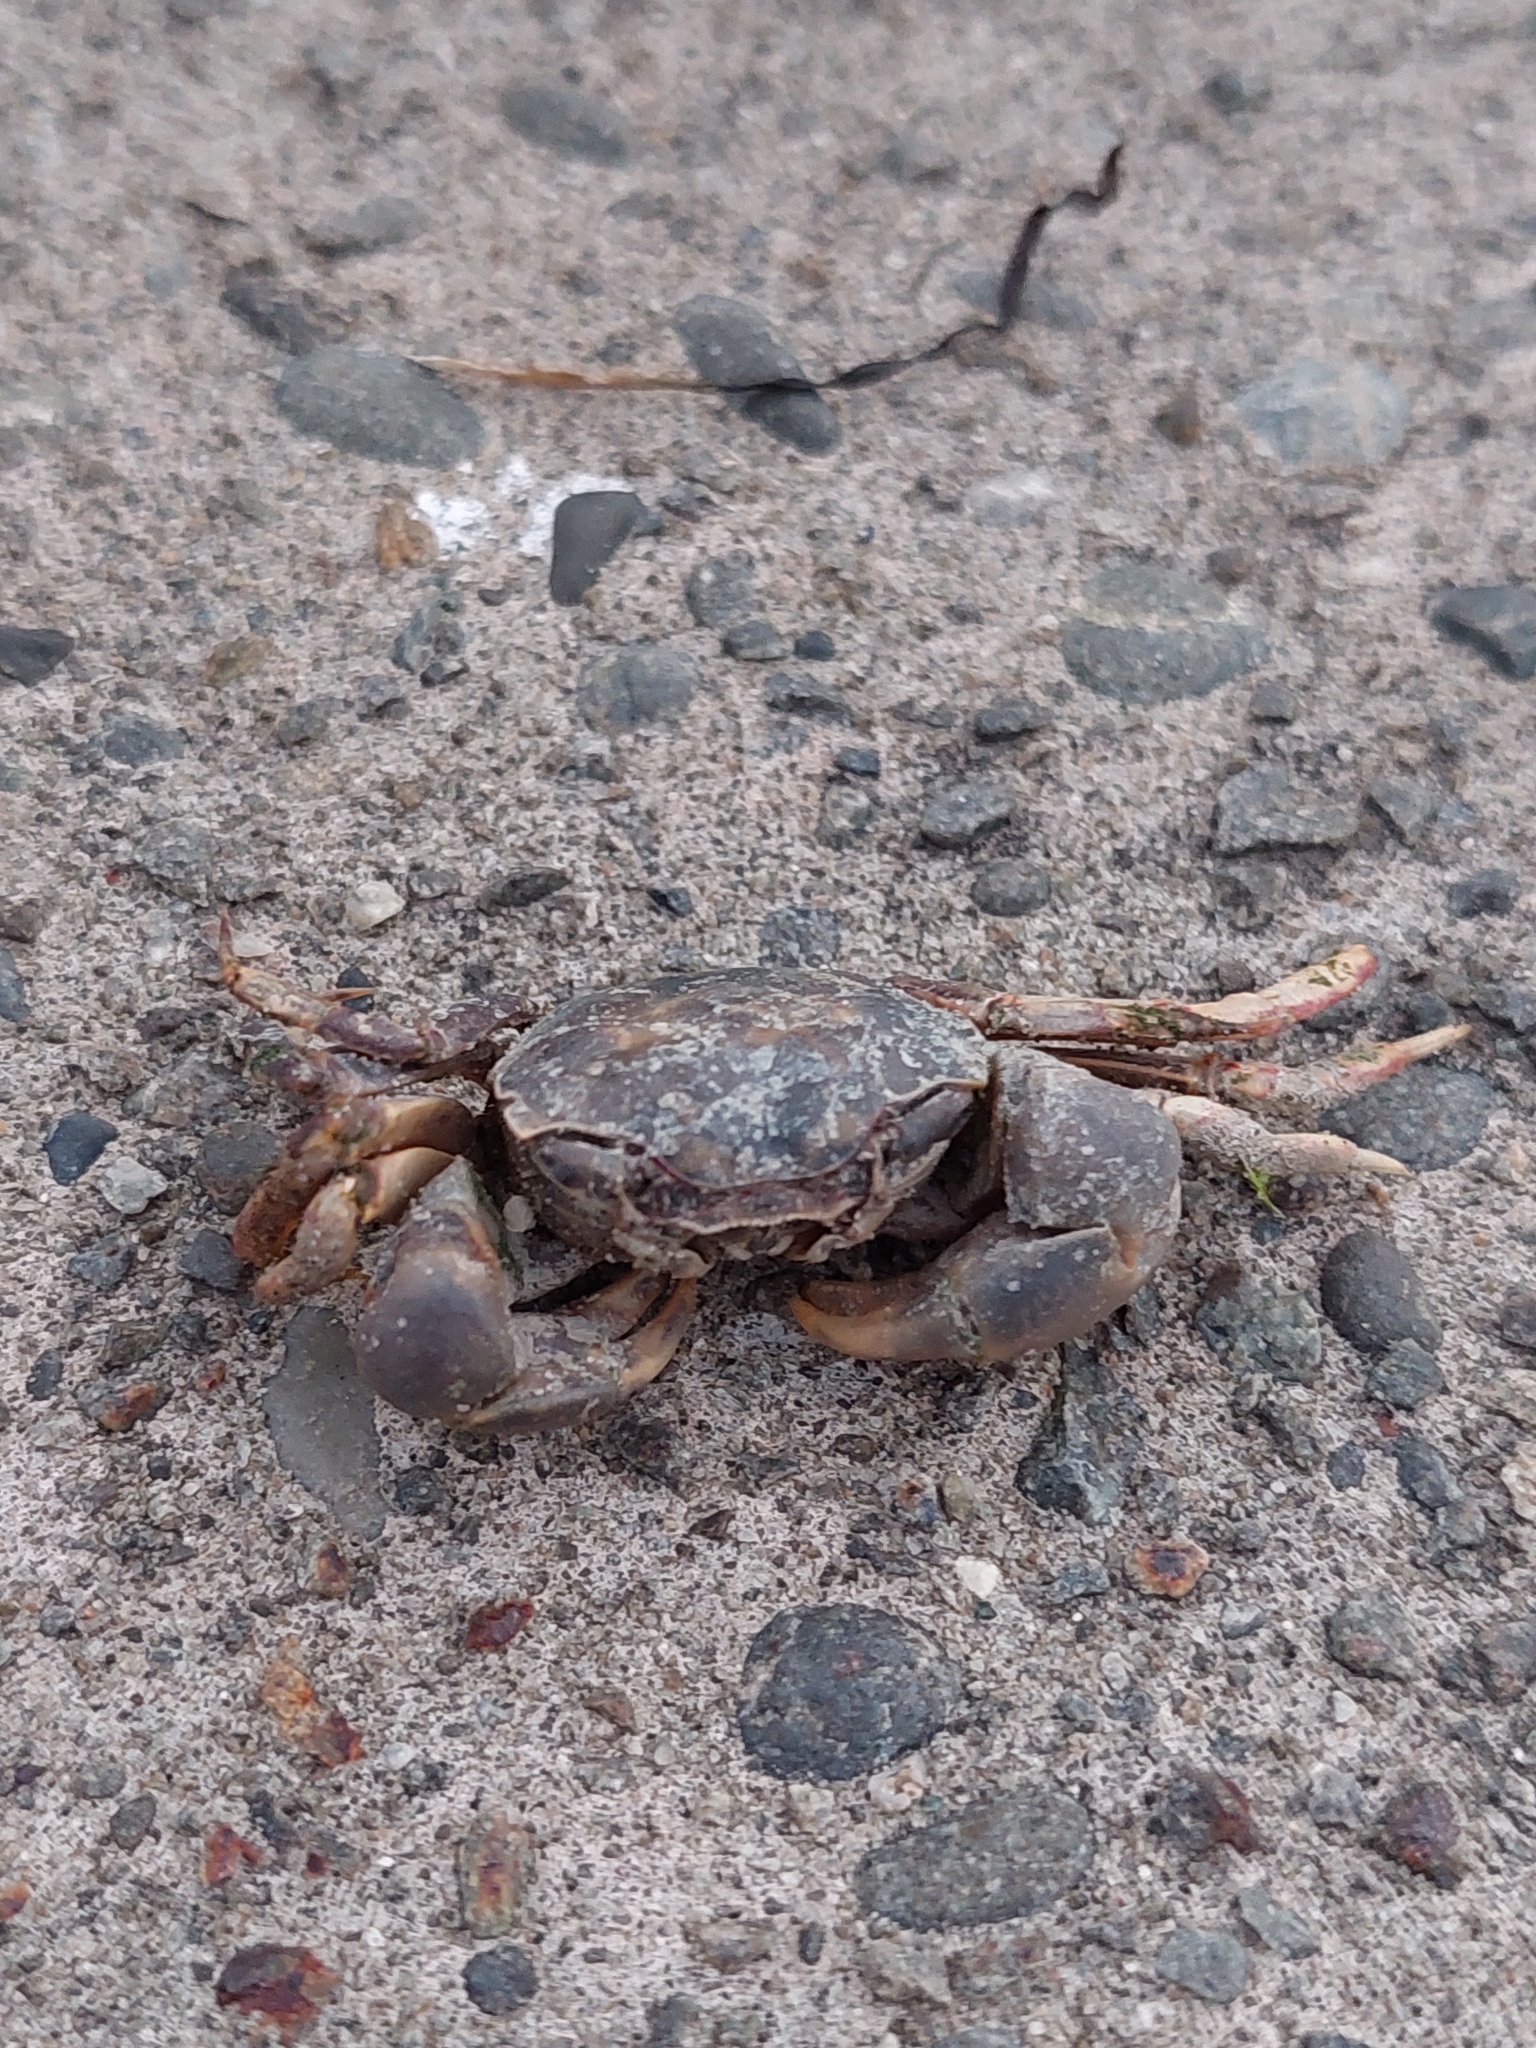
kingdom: Animalia
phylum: Arthropoda
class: Malacostraca
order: Decapoda
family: Varunidae
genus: Austrohelice
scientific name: Austrohelice crassa
